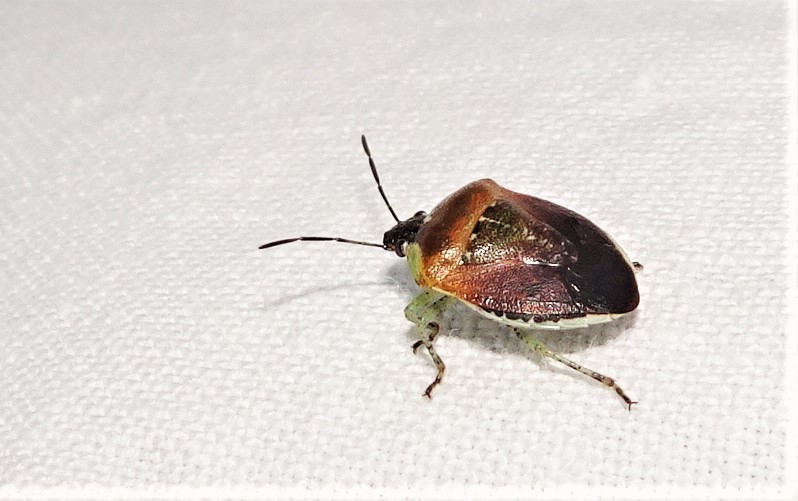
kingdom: Animalia
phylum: Arthropoda
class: Insecta
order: Hemiptera
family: Pentatomidae
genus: Monteithiella
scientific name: Monteithiella
